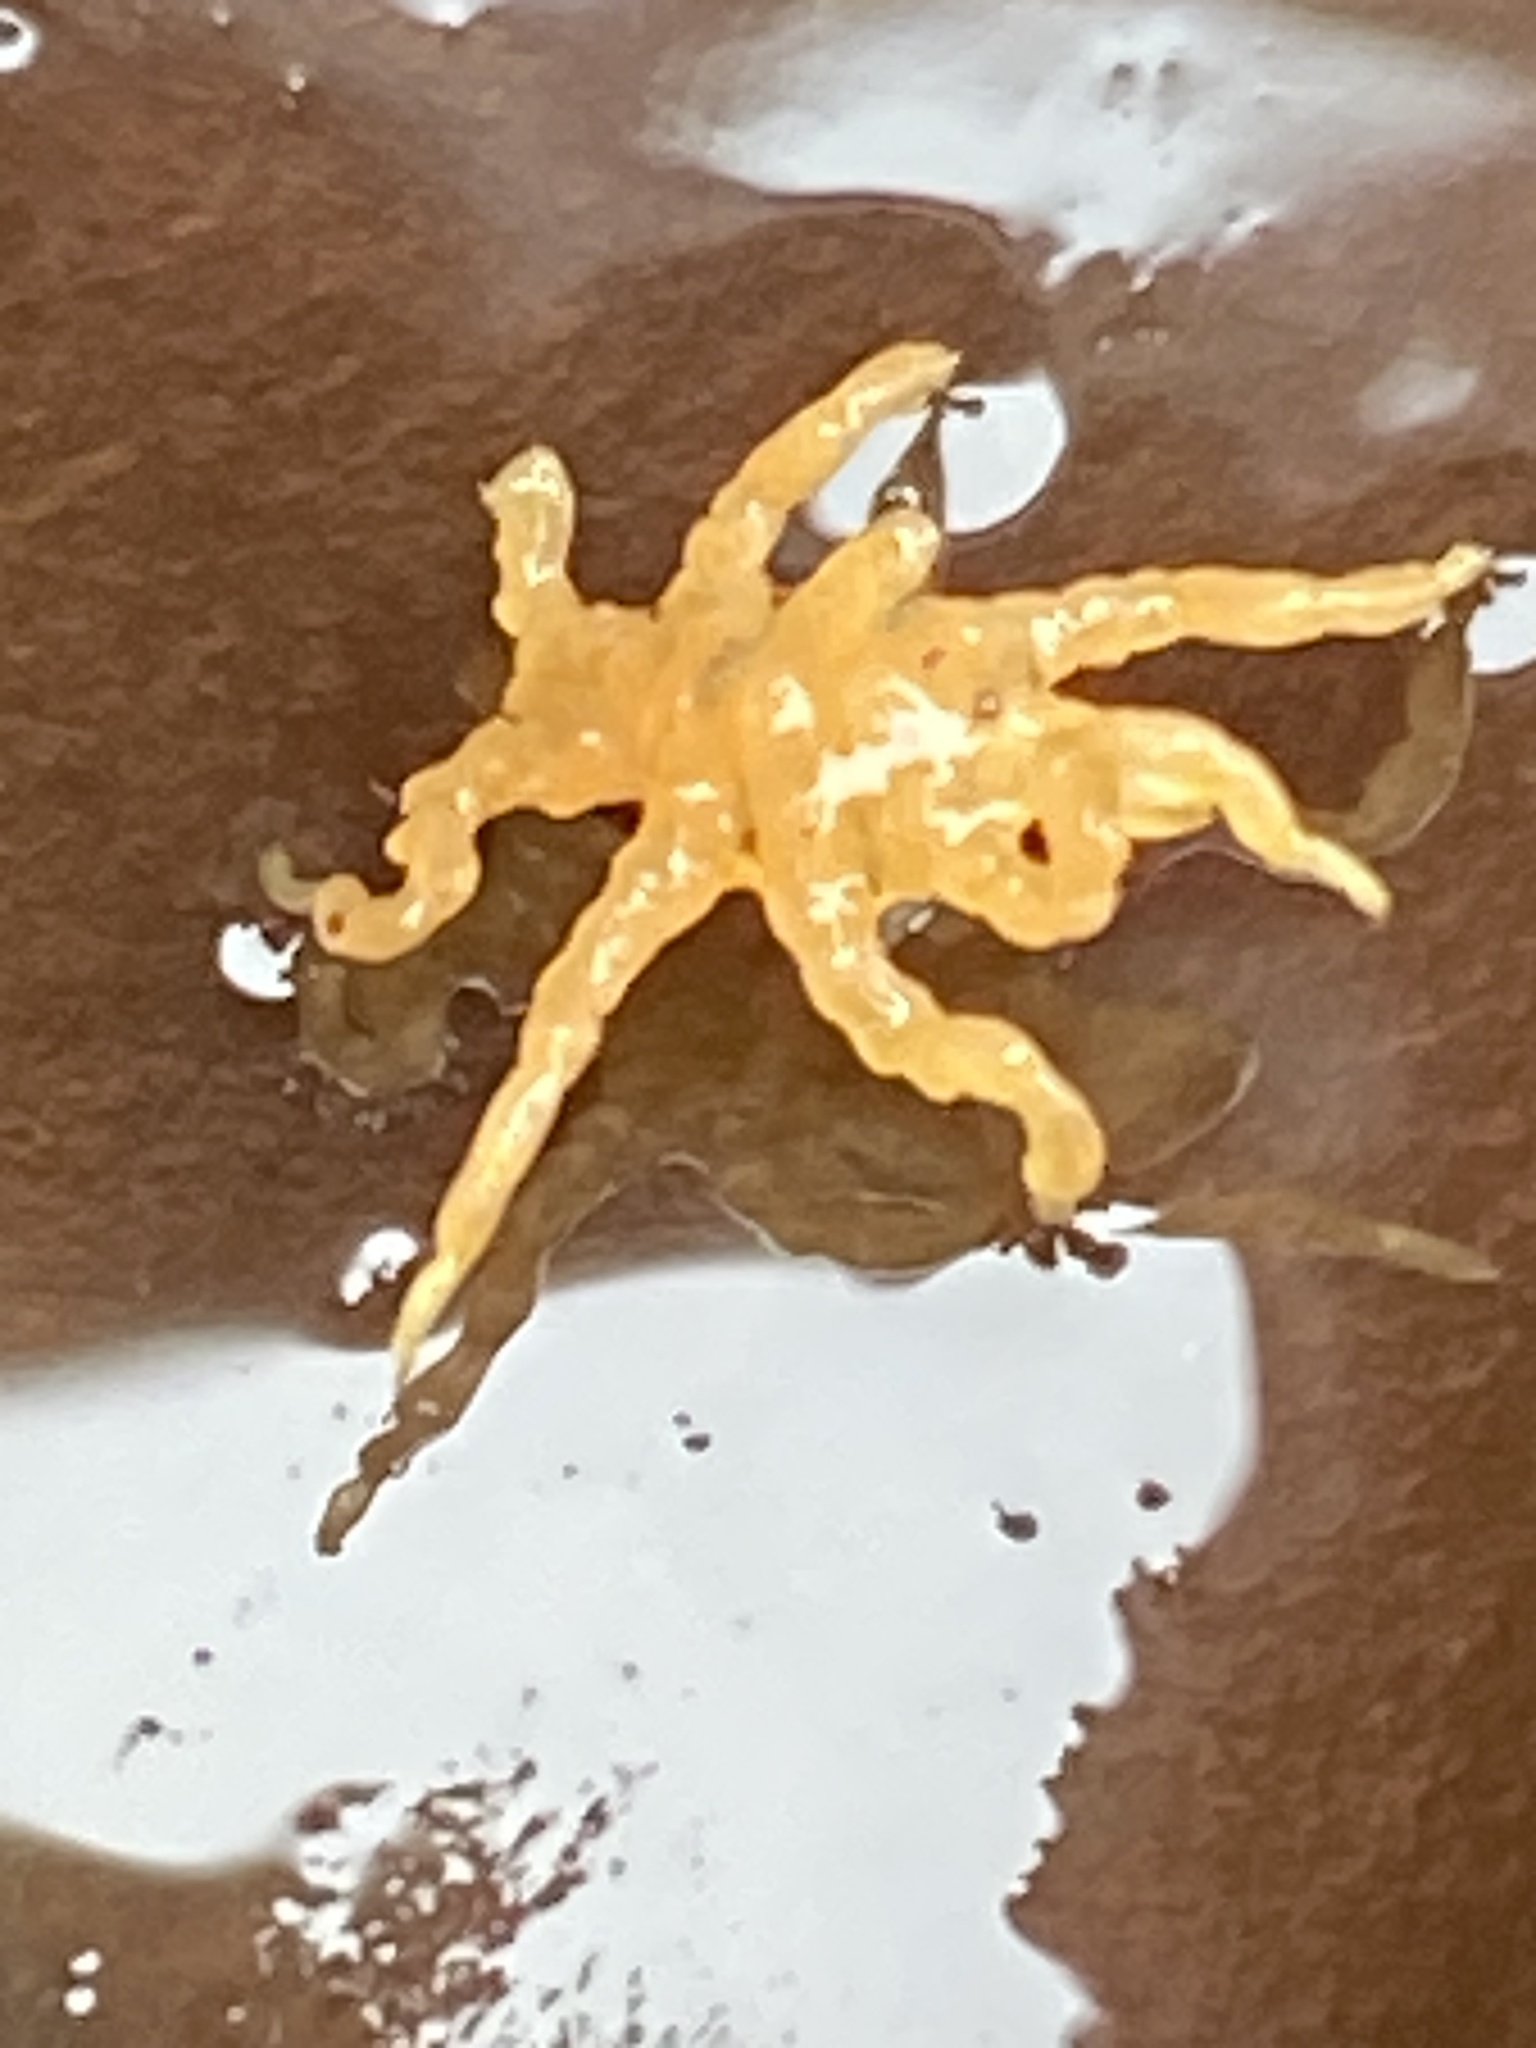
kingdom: Animalia
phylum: Arthropoda
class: Pycnogonida
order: Pantopoda
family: Pycnogonidae
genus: Pycnogonum
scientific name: Pycnogonum stearnsi
